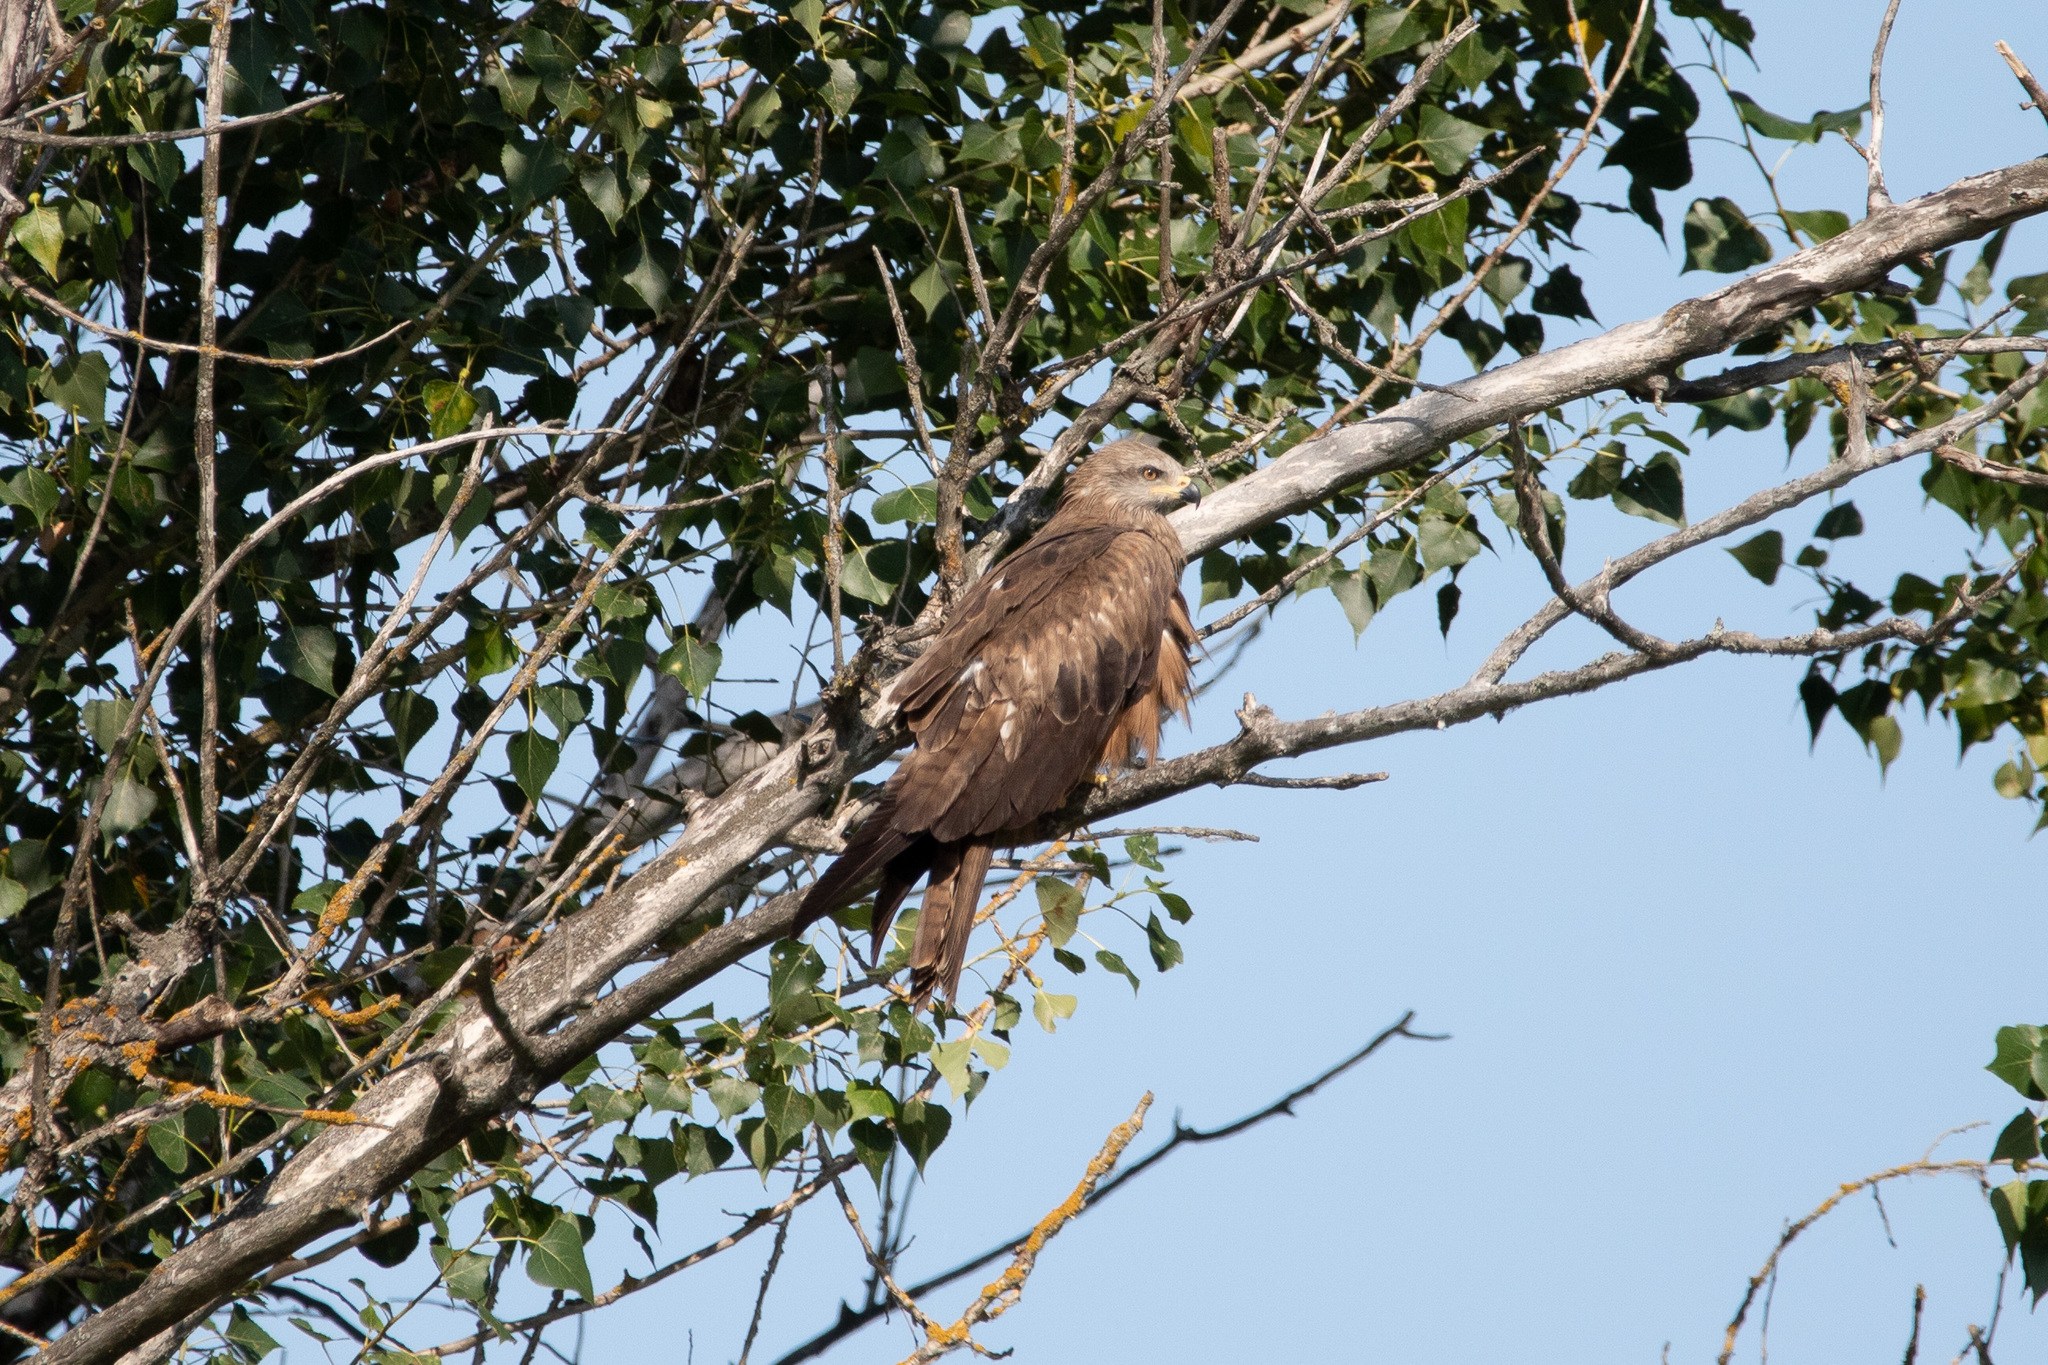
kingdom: Animalia
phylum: Chordata
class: Aves
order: Accipitriformes
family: Accipitridae
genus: Milvus
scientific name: Milvus migrans
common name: Black kite
